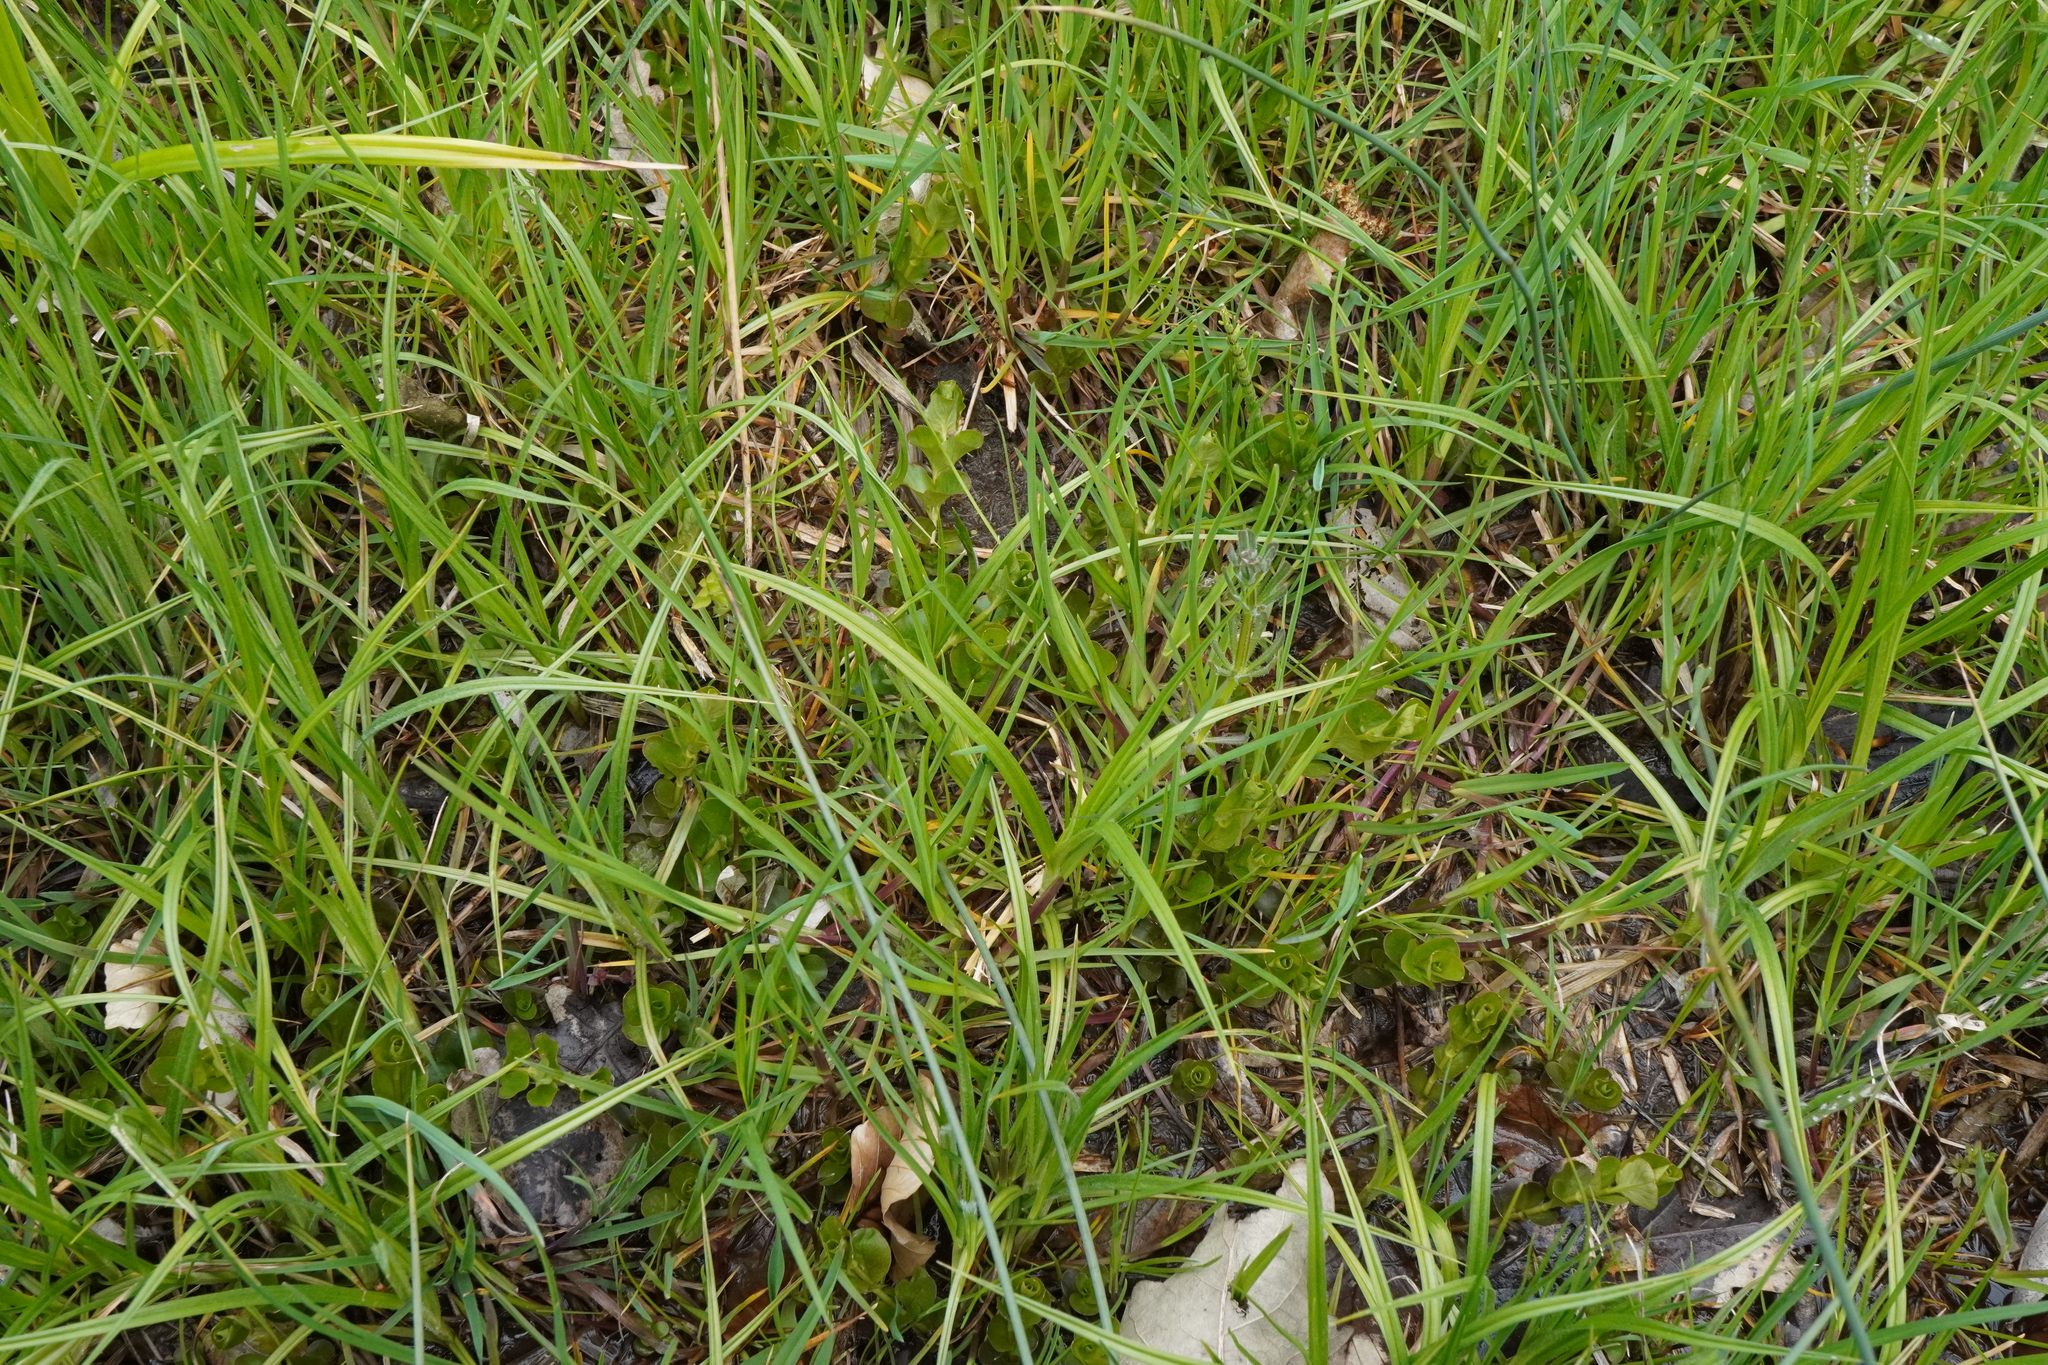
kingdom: Plantae
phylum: Tracheophyta
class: Magnoliopsida
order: Ericales
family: Primulaceae
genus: Lysimachia
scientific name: Lysimachia nummularia
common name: Moneywort
